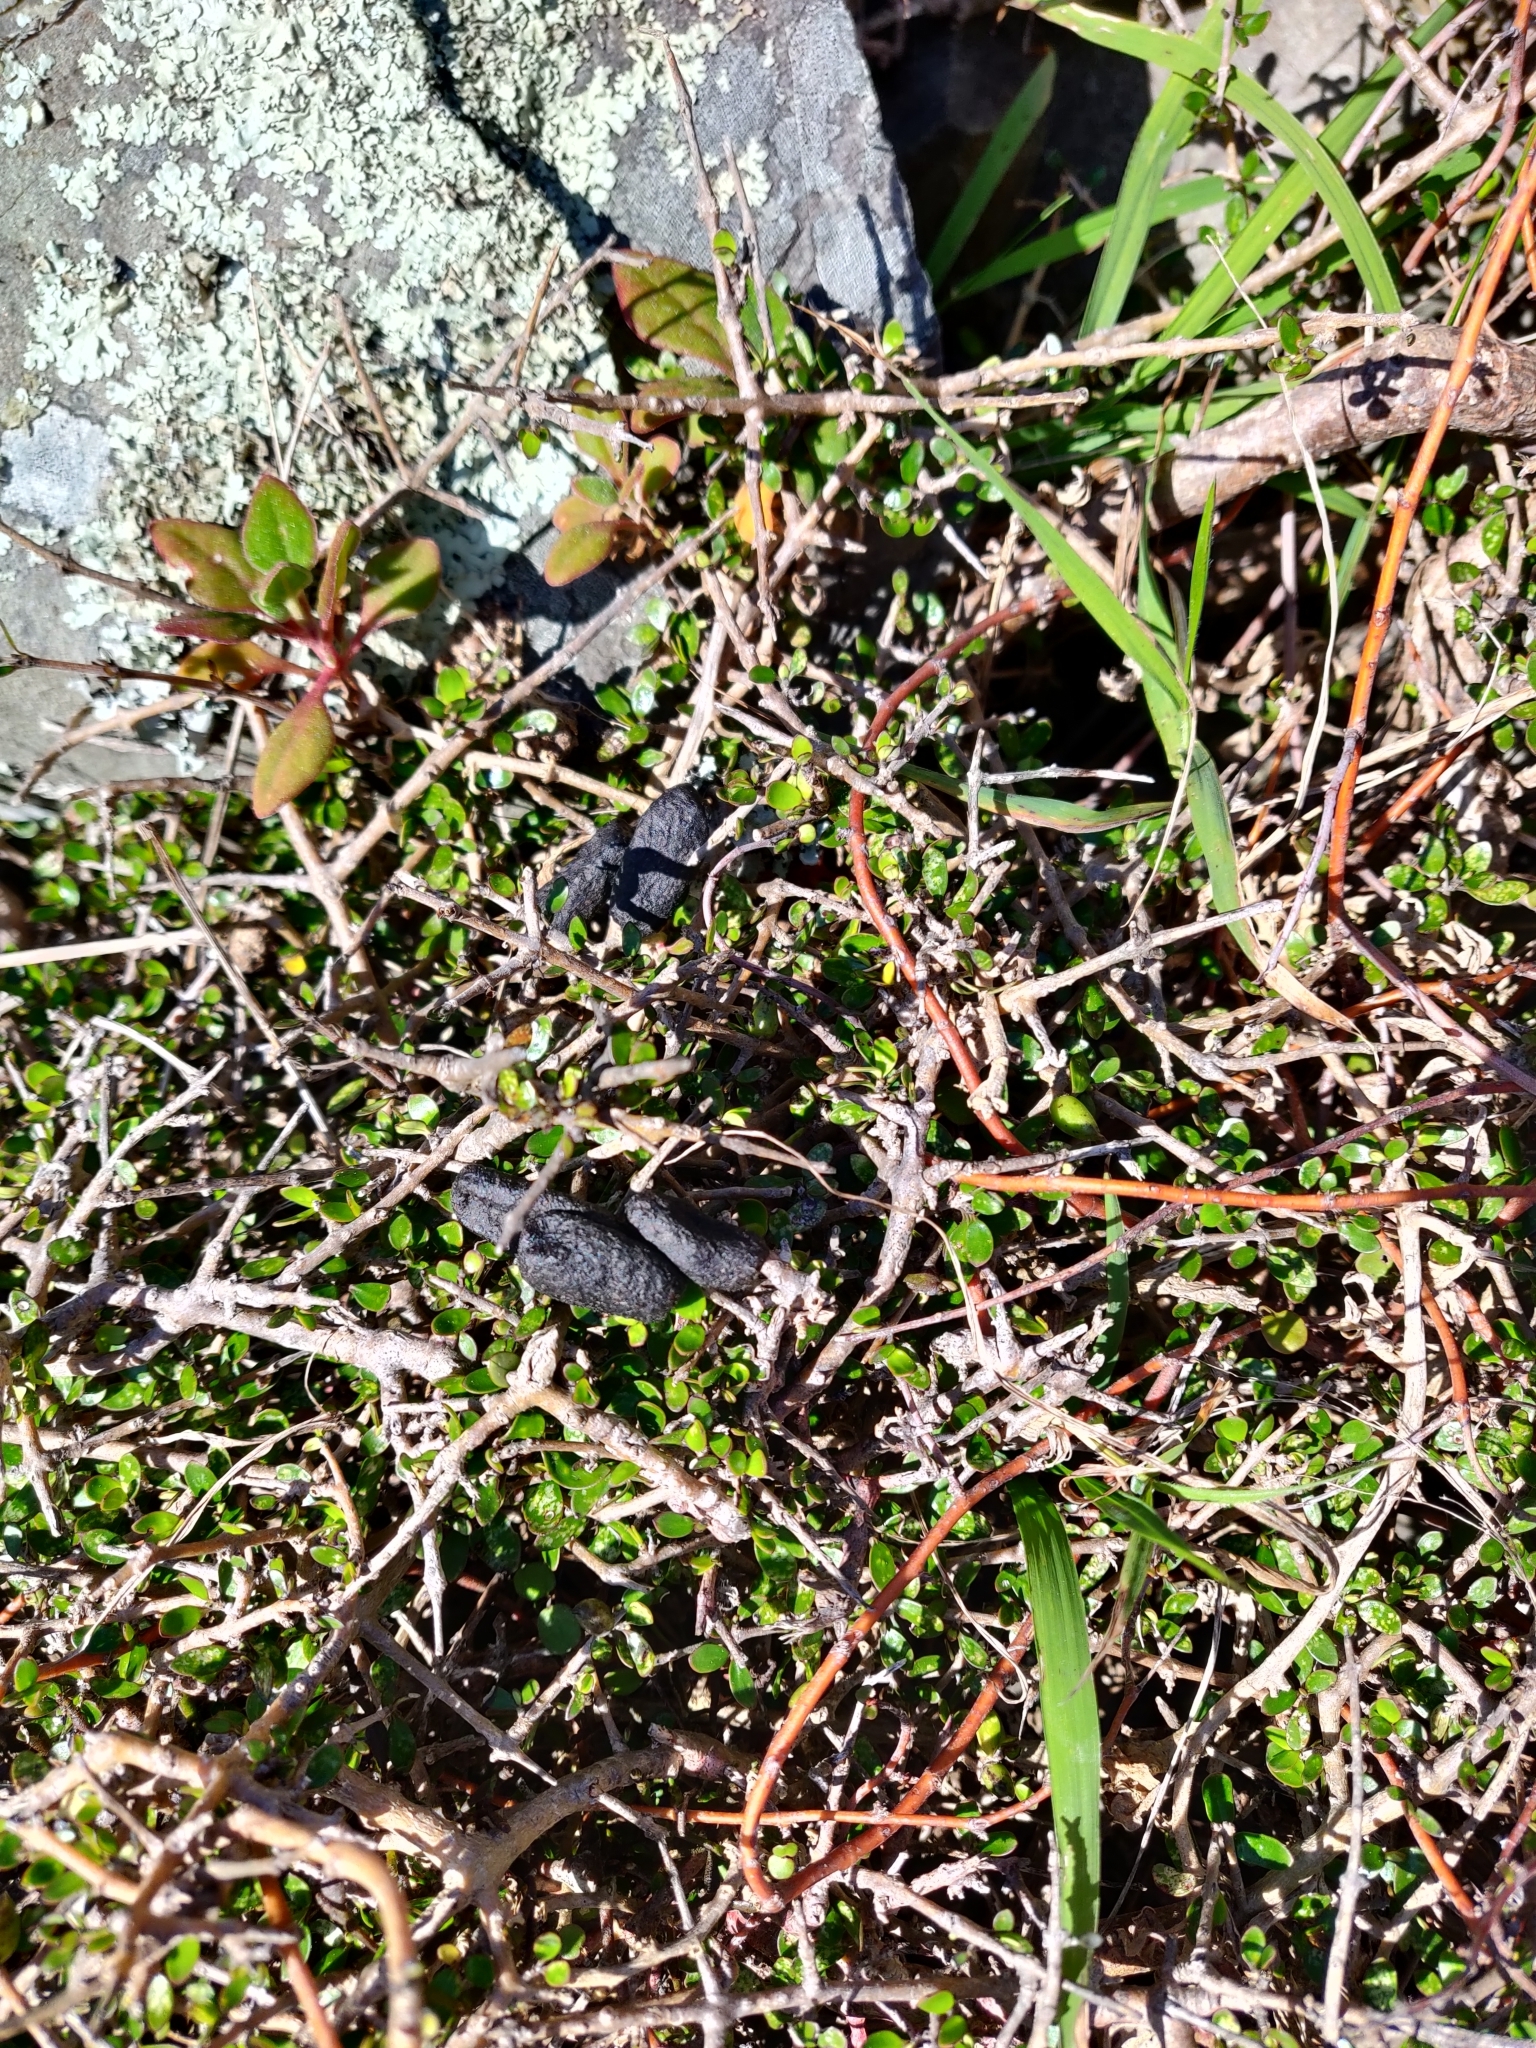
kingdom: Animalia
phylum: Chordata
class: Mammalia
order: Artiodactyla
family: Bovidae
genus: Capra
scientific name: Capra hircus
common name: Domestic goat
